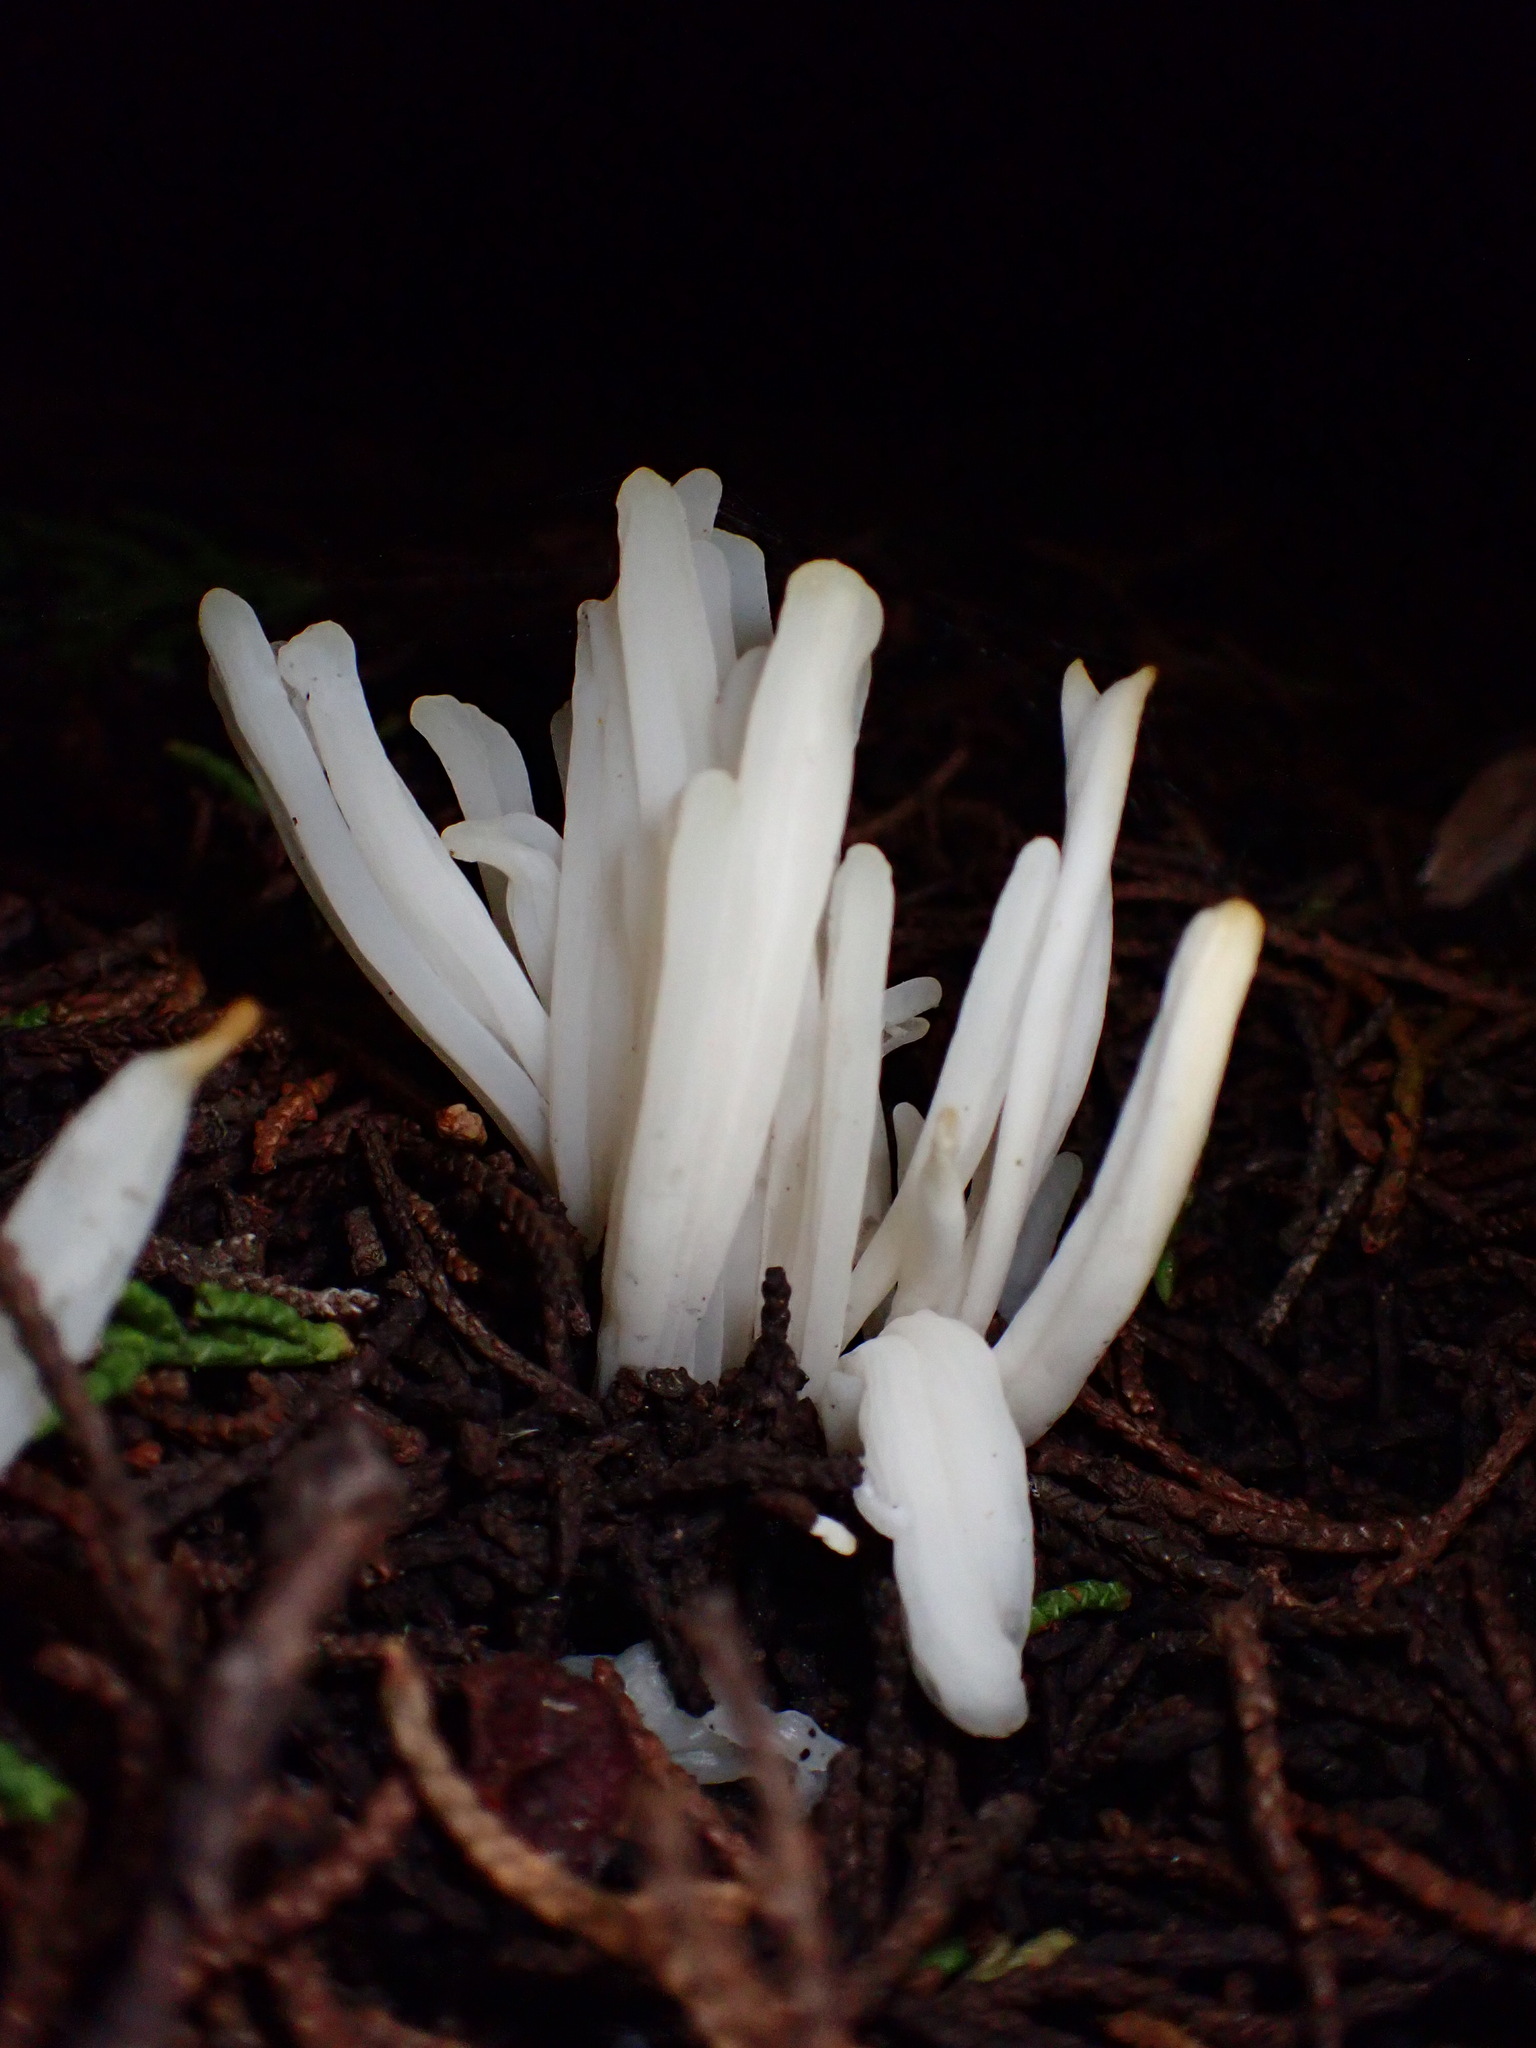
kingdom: Fungi
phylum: Basidiomycota
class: Agaricomycetes
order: Agaricales
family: Clavariaceae
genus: Clavaria
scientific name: Clavaria fragilis
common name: White spindles
